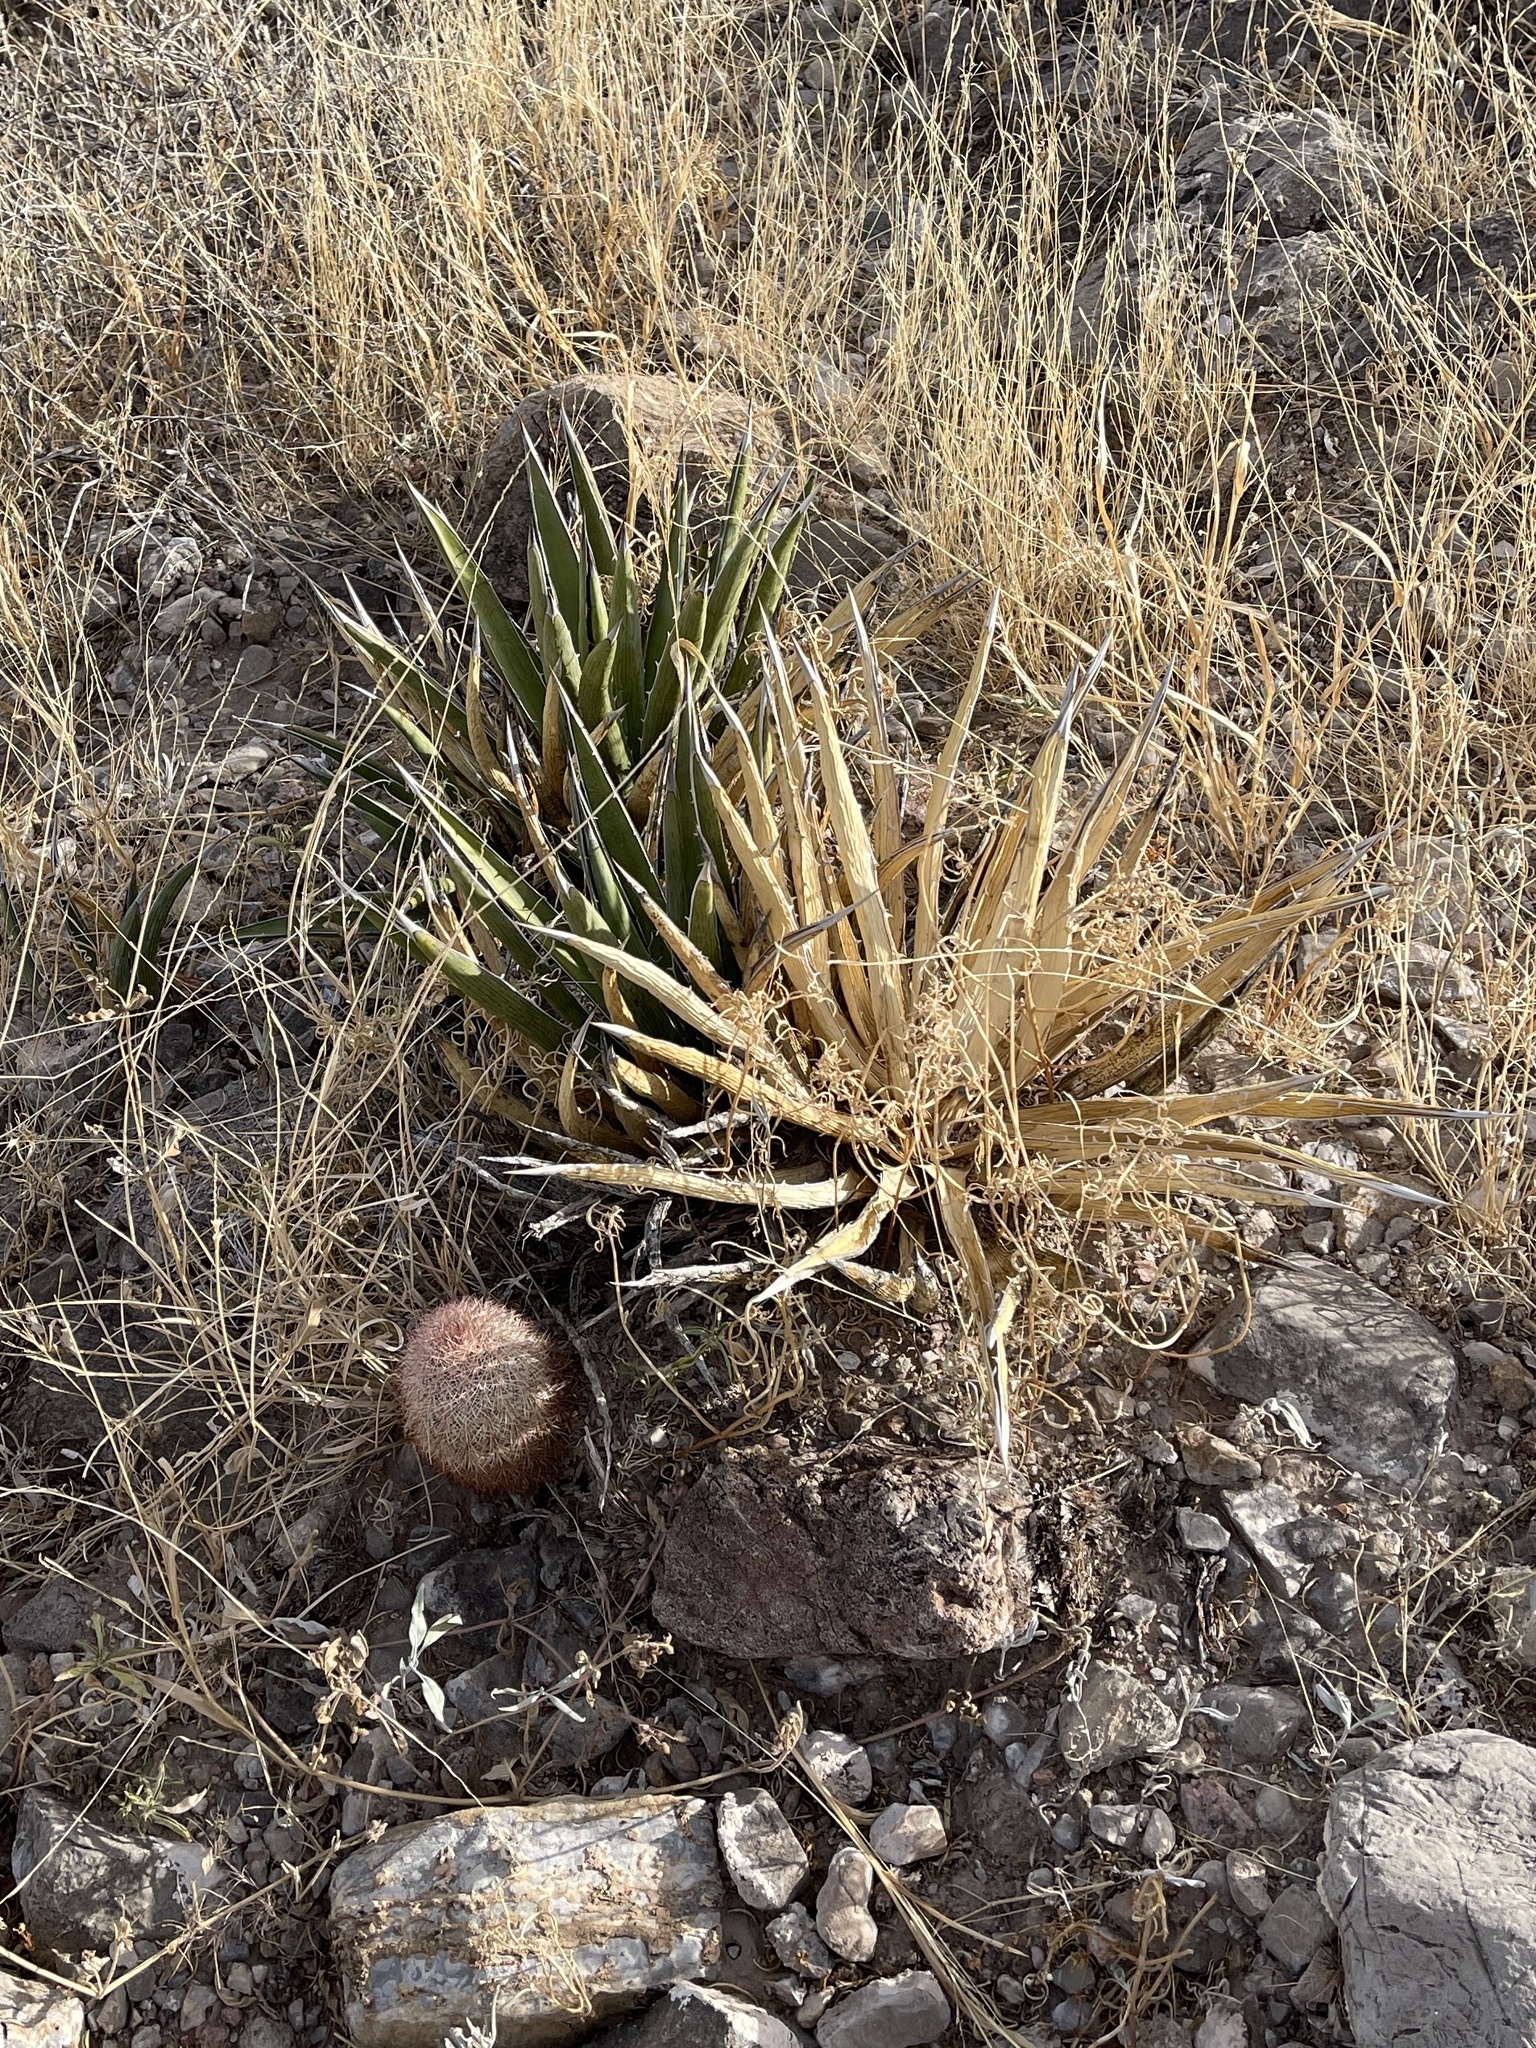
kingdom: Plantae
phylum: Tracheophyta
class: Liliopsida
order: Asparagales
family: Asparagaceae
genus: Agave
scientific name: Agave lechuguilla
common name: Lecheguilla agave
